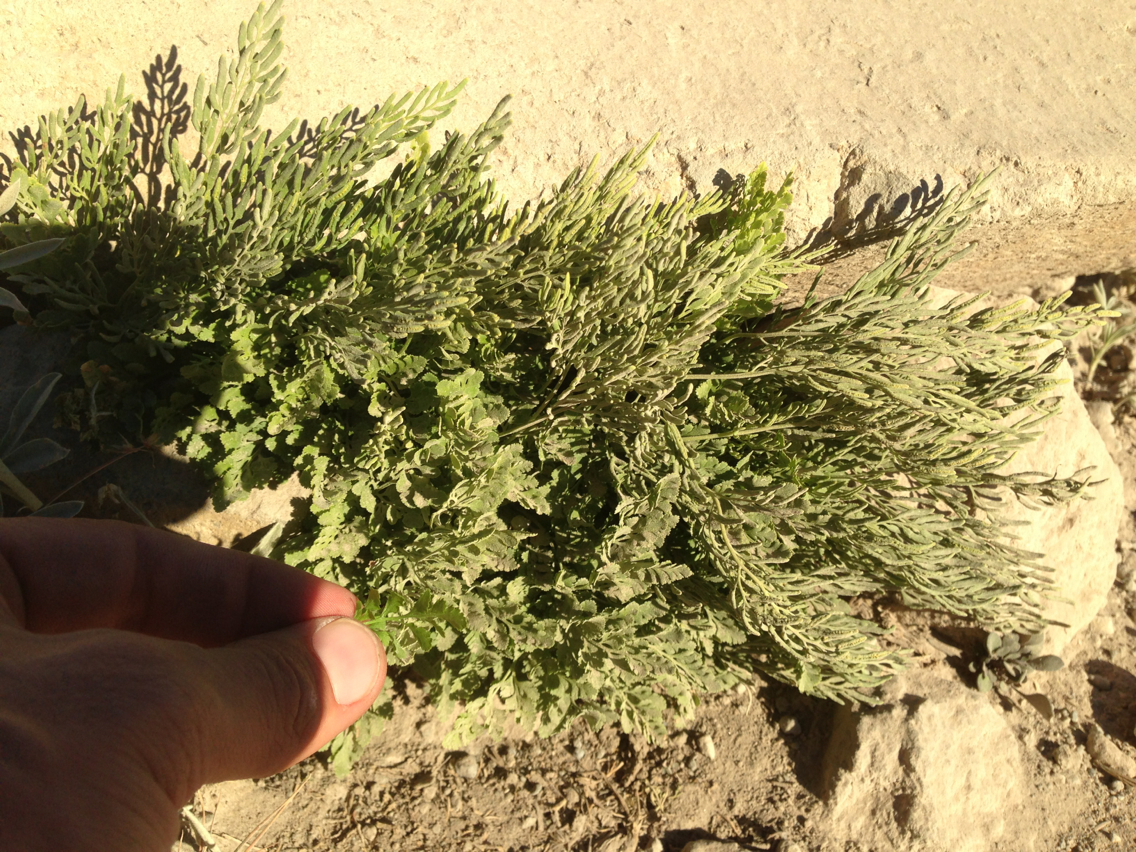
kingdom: Plantae
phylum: Tracheophyta
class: Polypodiopsida
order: Polypodiales
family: Pteridaceae
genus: Cryptogramma
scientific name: Cryptogramma cascadensis
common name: Cascade parsley fern
